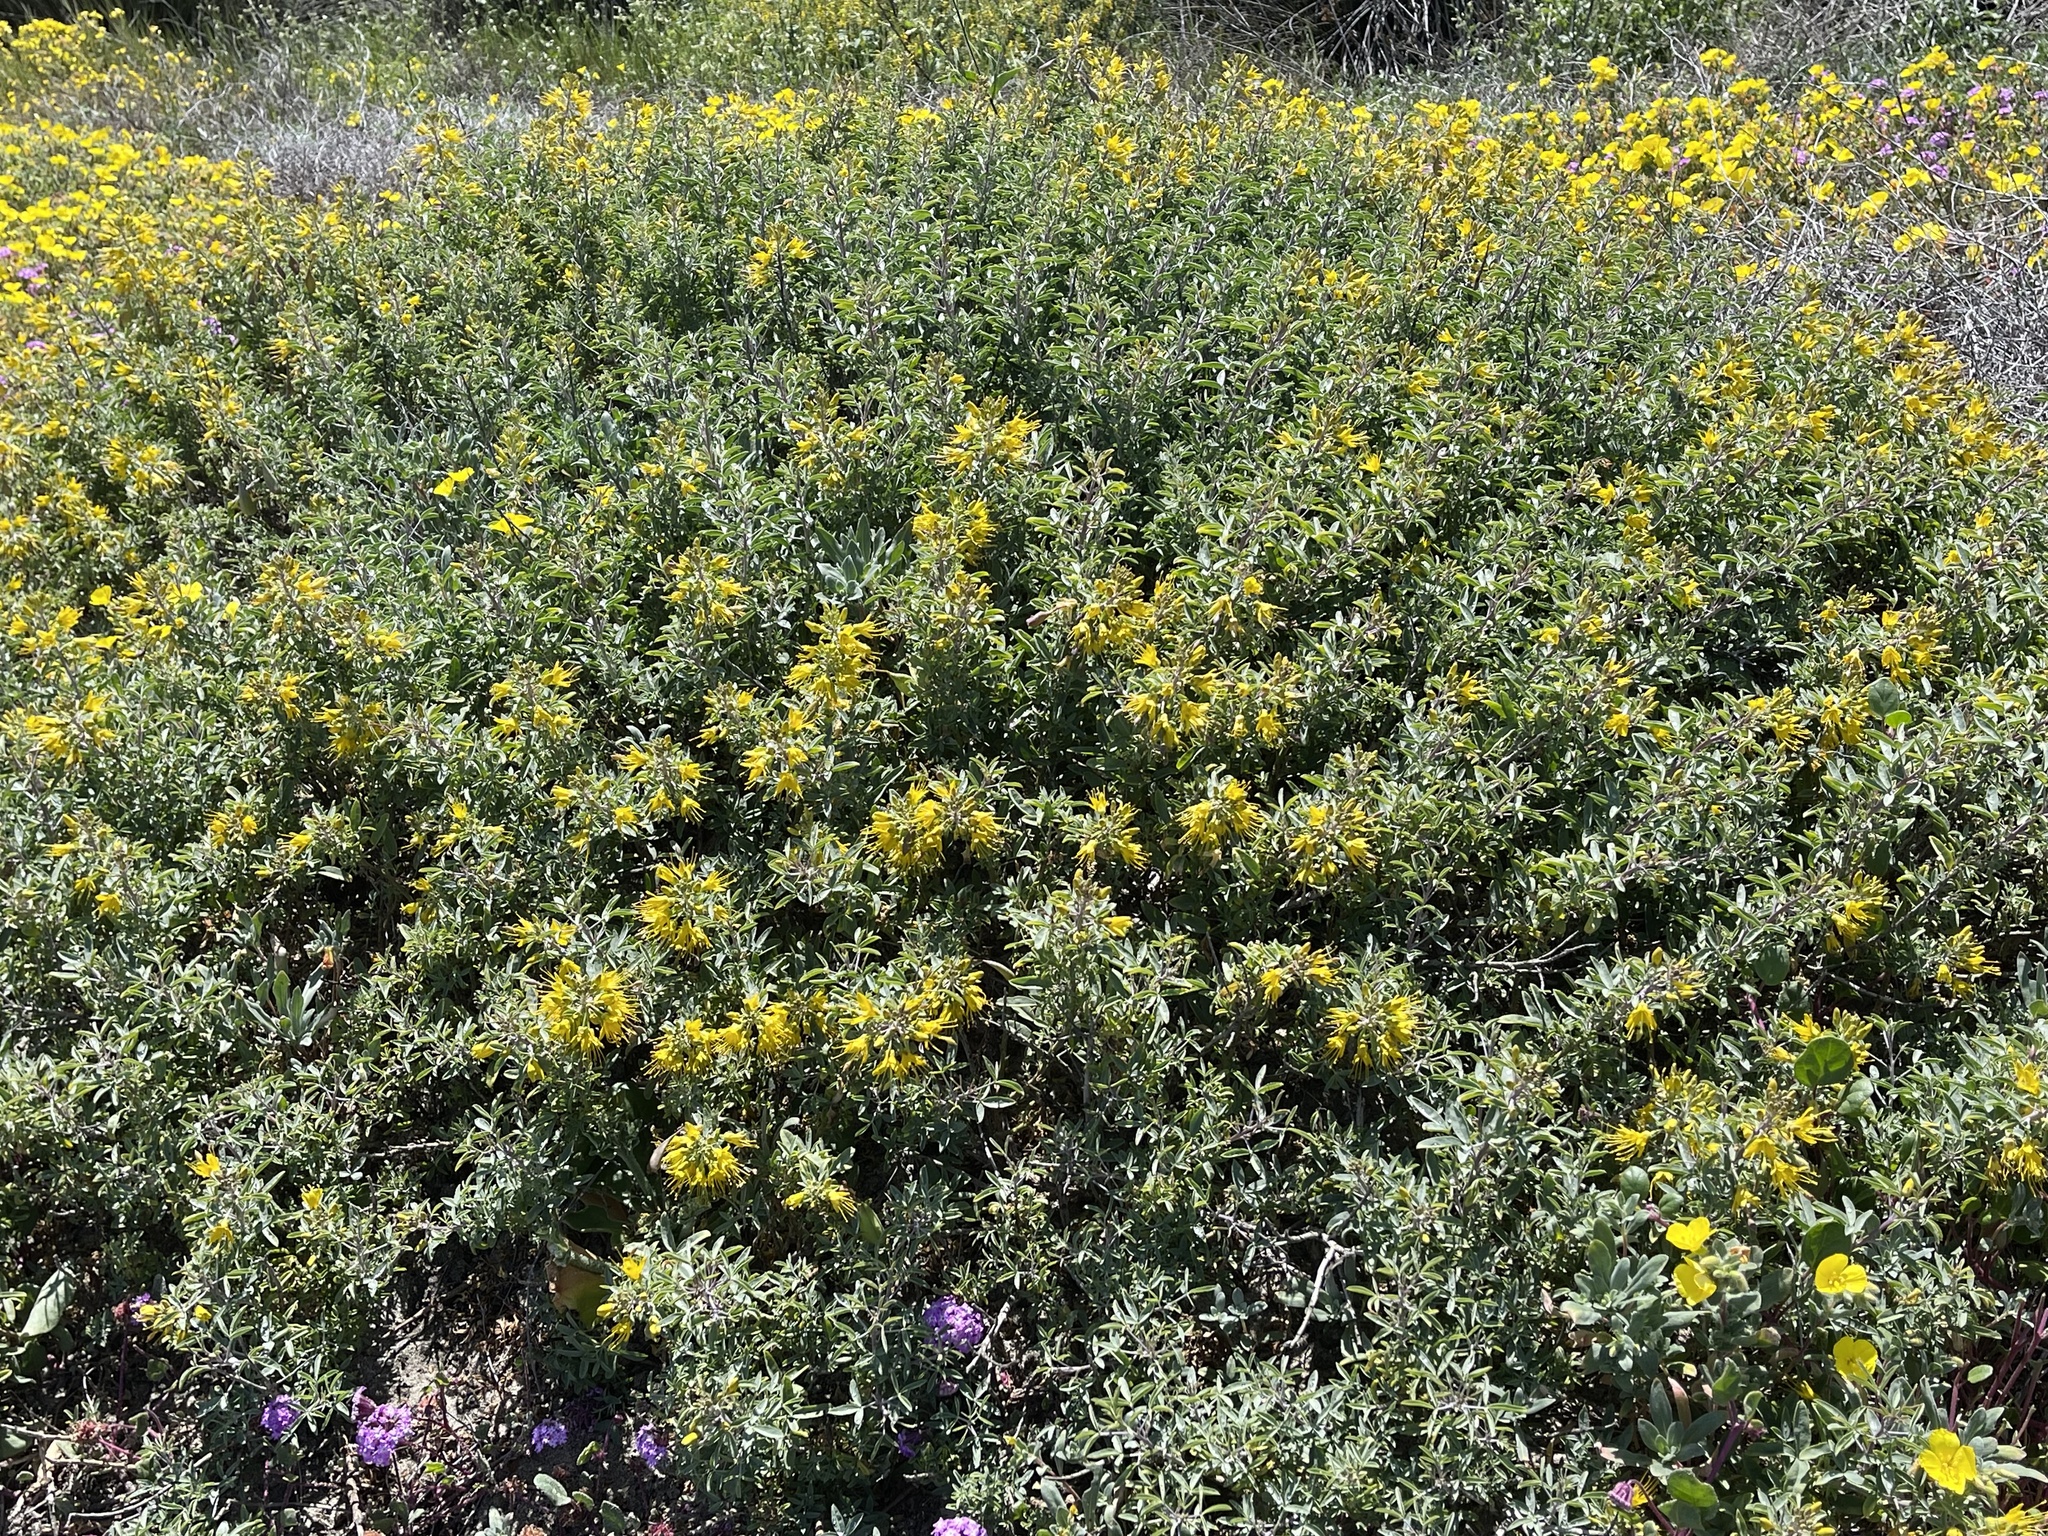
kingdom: Plantae
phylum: Tracheophyta
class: Magnoliopsida
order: Brassicales
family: Cleomaceae
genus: Cleomella
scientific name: Cleomella arborea
